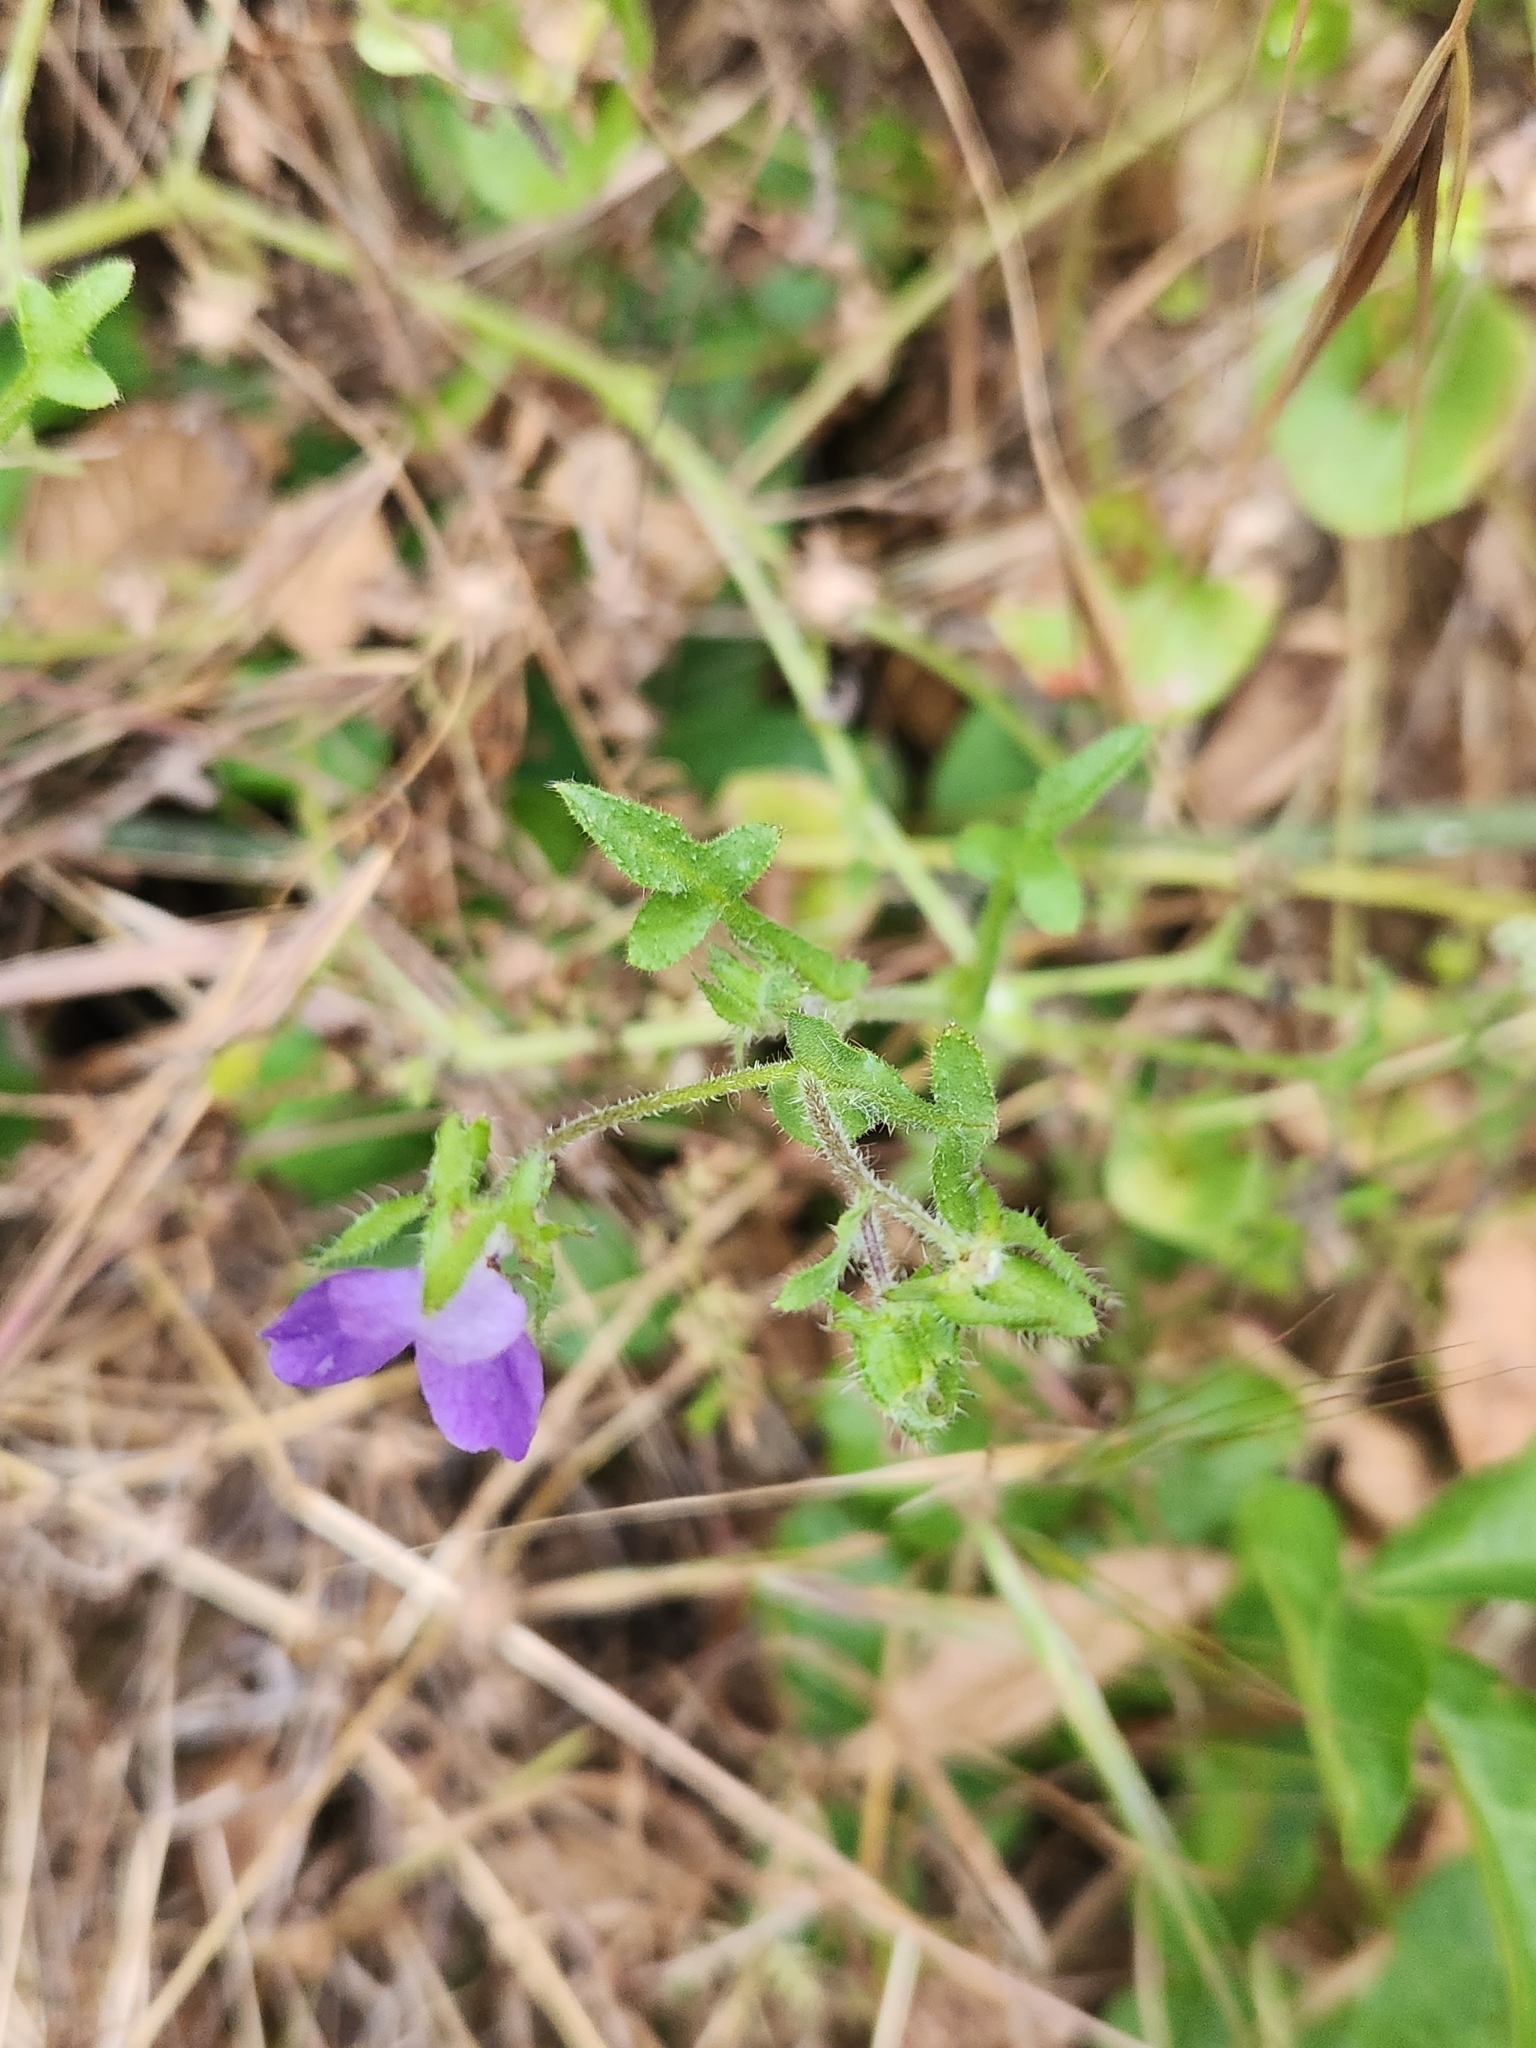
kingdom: Plantae
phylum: Tracheophyta
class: Magnoliopsida
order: Boraginales
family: Hydrophyllaceae
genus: Pholistoma
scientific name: Pholistoma auritum
